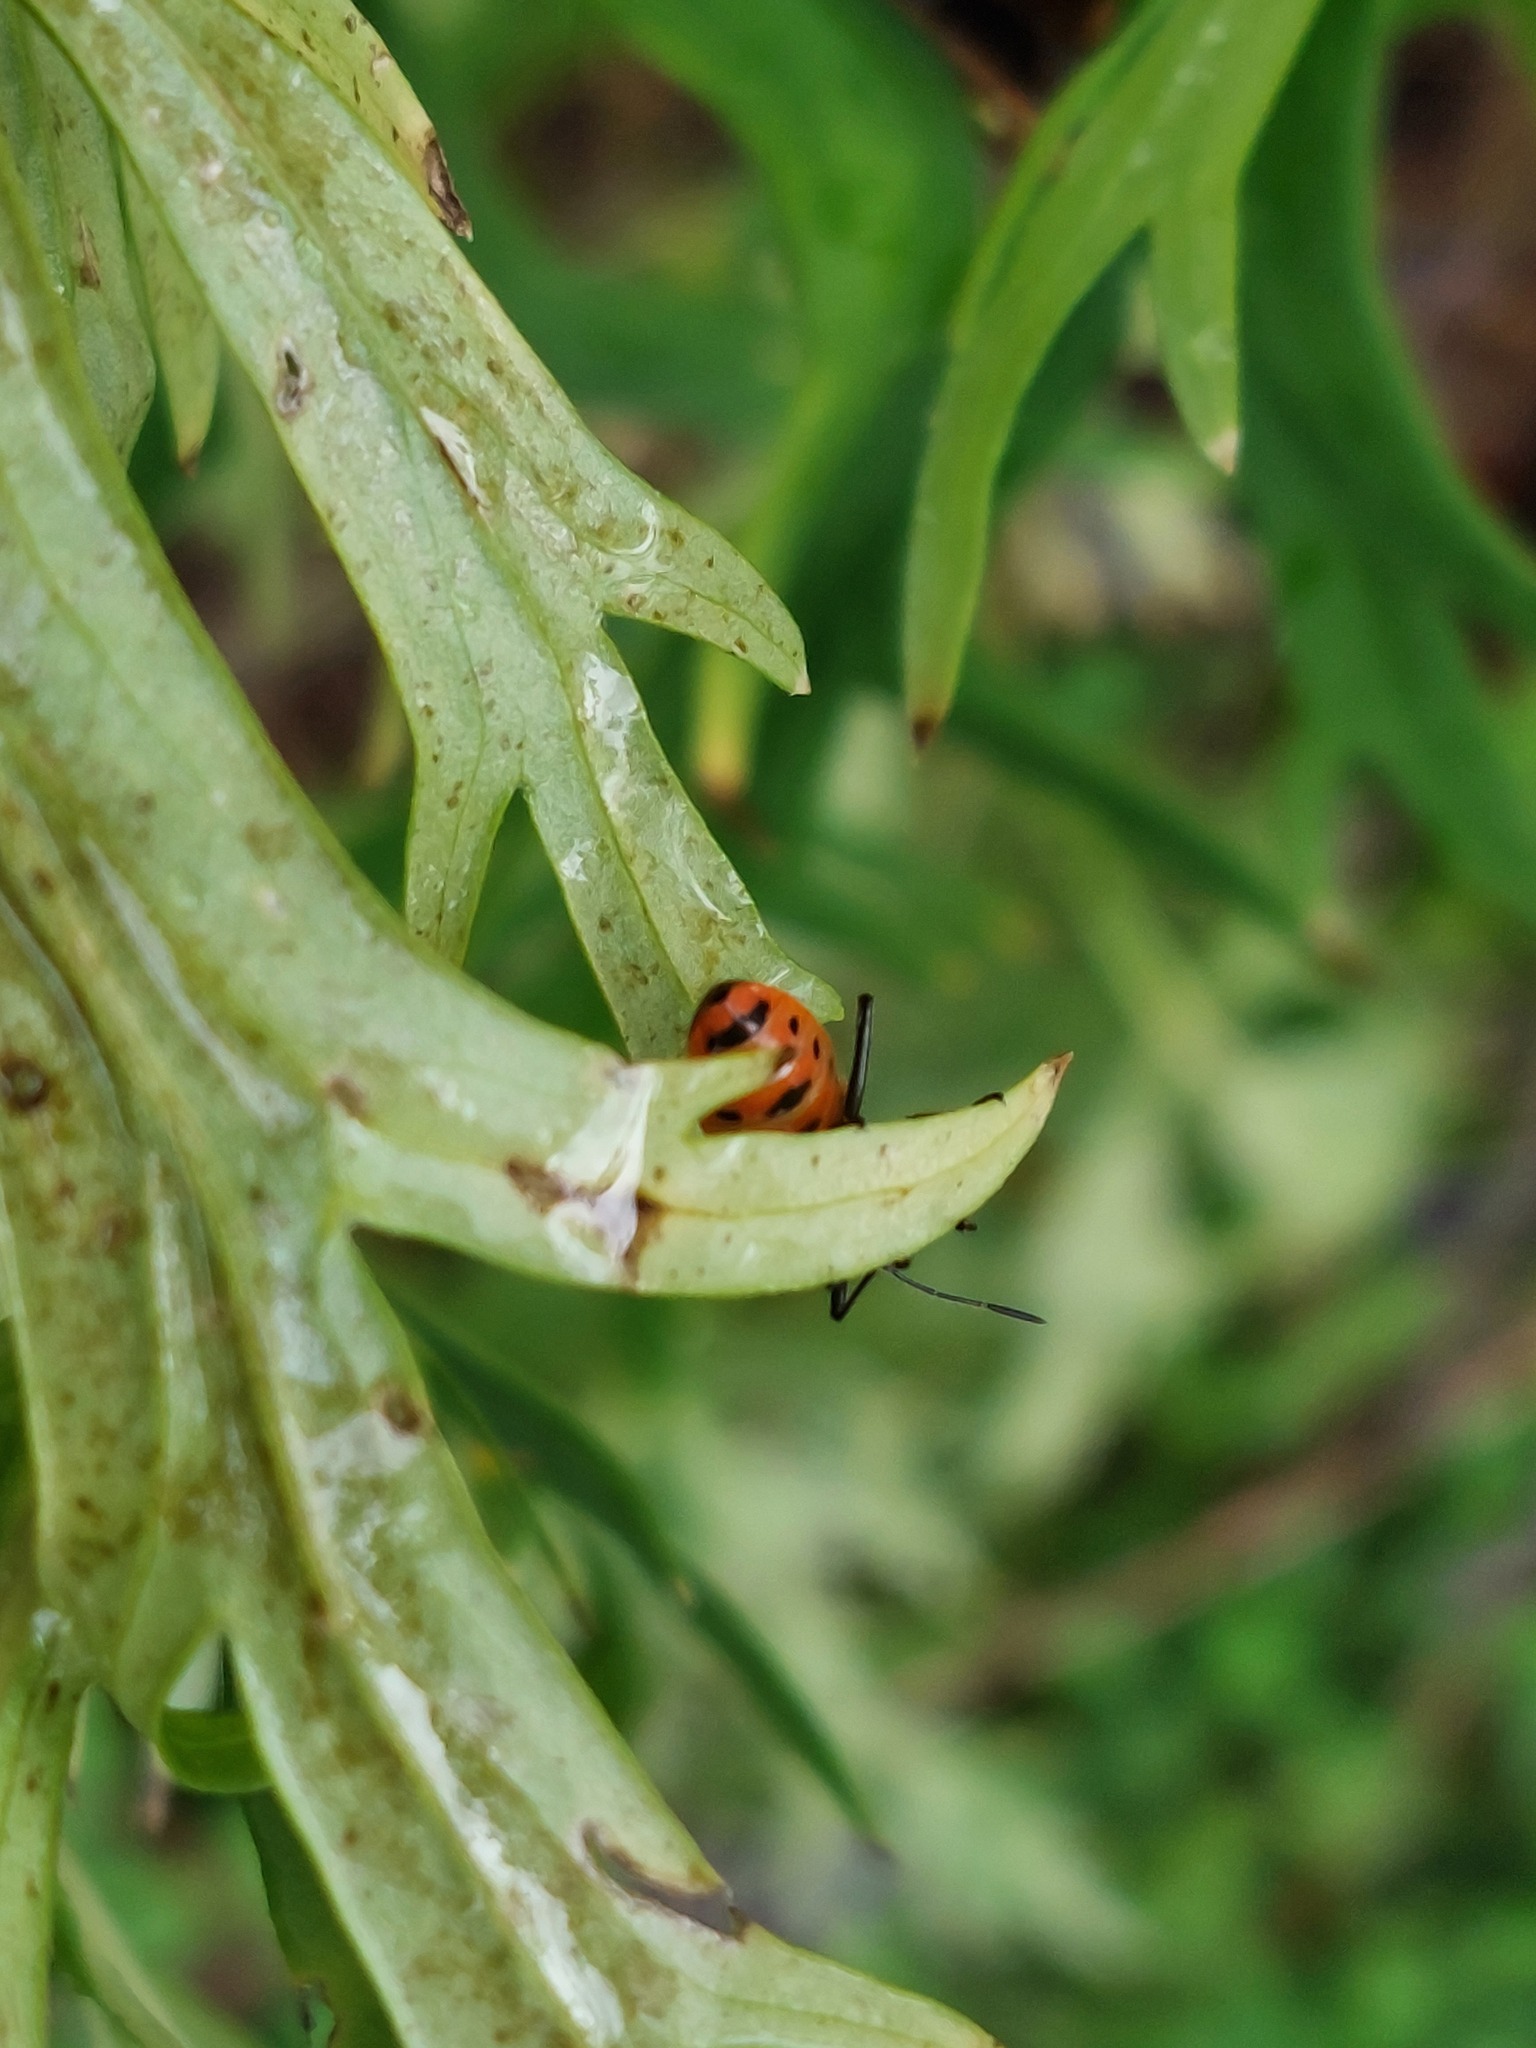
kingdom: Animalia
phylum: Arthropoda
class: Insecta
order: Hemiptera
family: Rhopalidae
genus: Corizus
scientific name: Corizus hyoscyami
